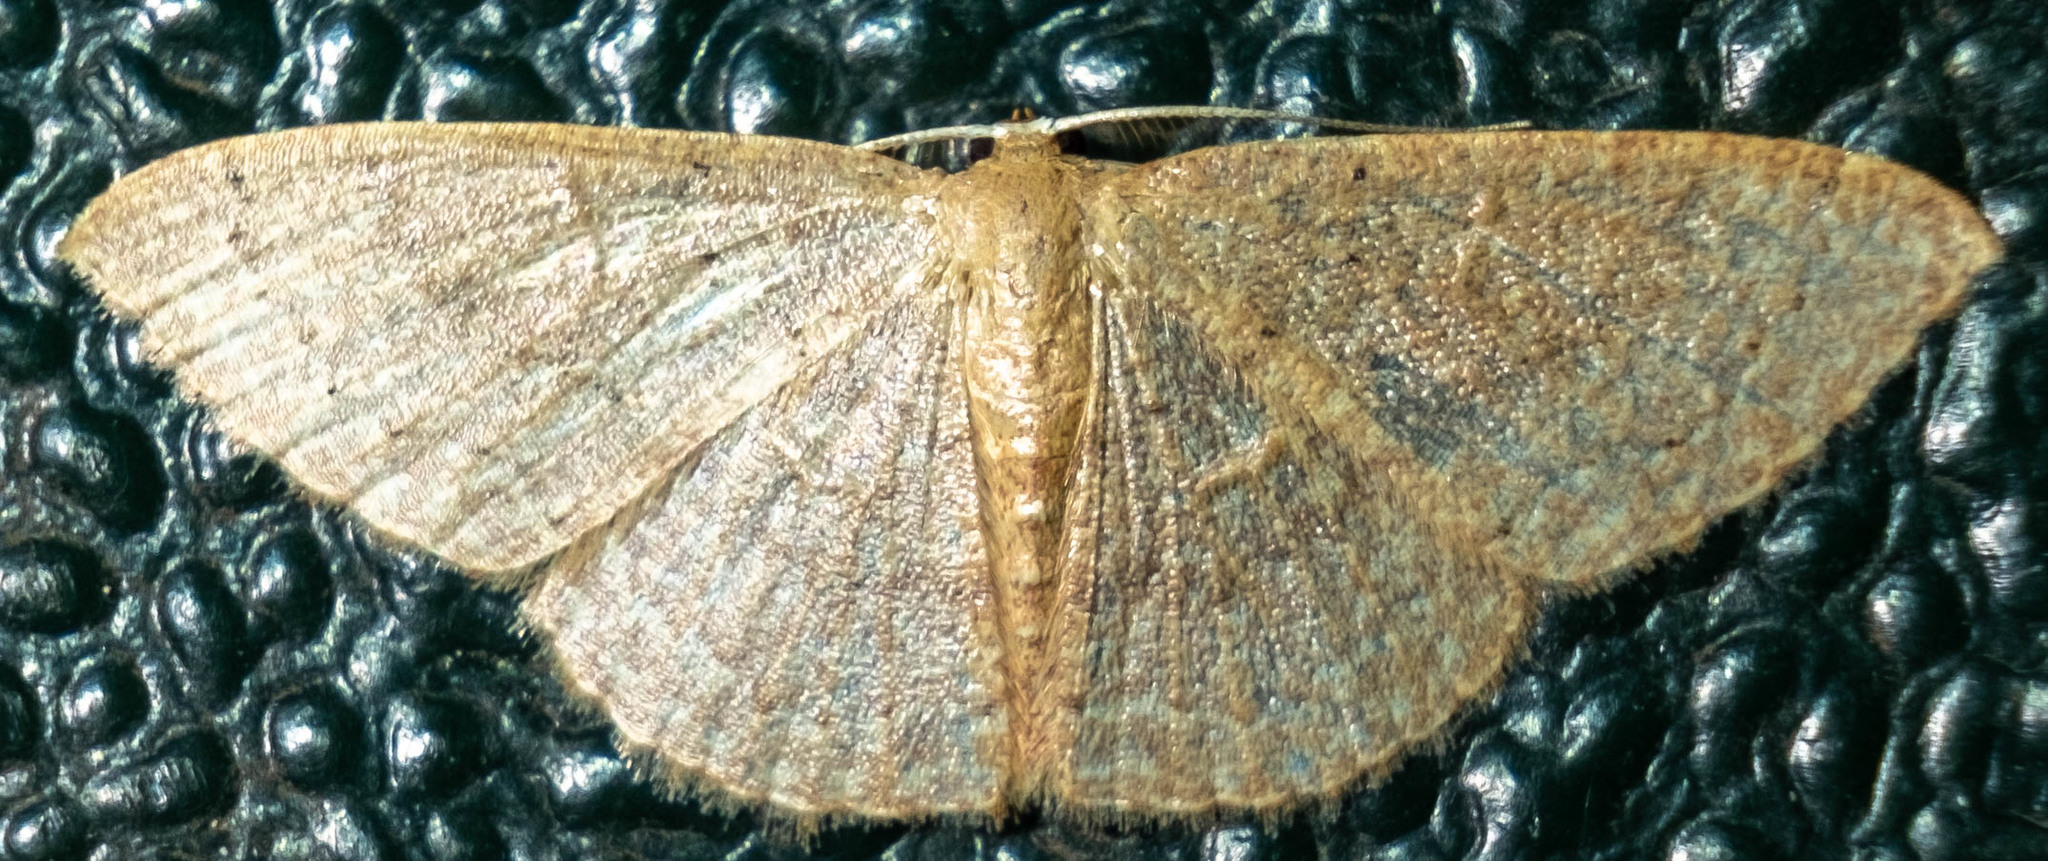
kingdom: Animalia
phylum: Arthropoda
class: Insecta
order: Lepidoptera
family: Geometridae
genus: Pleuroprucha
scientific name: Pleuroprucha insulsaria
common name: Common tan wave
